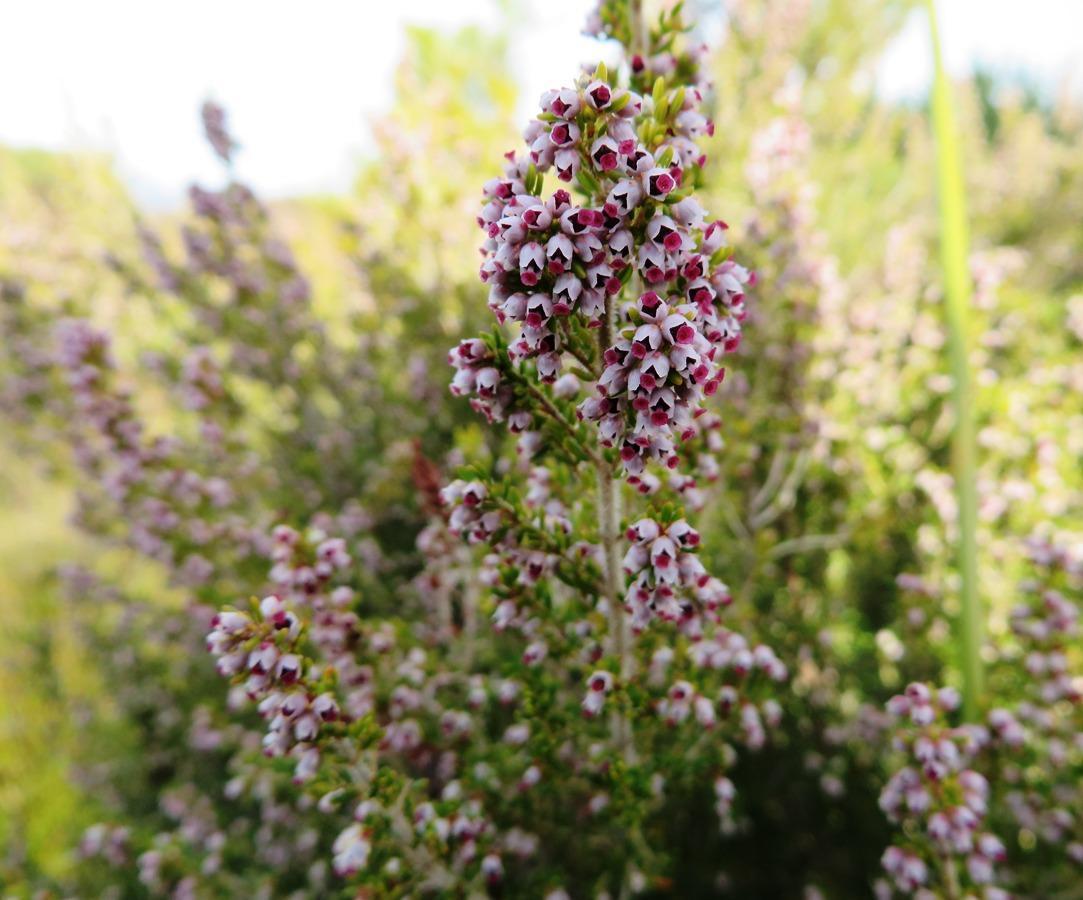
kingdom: Plantae
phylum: Tracheophyta
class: Magnoliopsida
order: Ericales
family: Ericaceae
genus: Erica
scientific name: Erica hispidula
